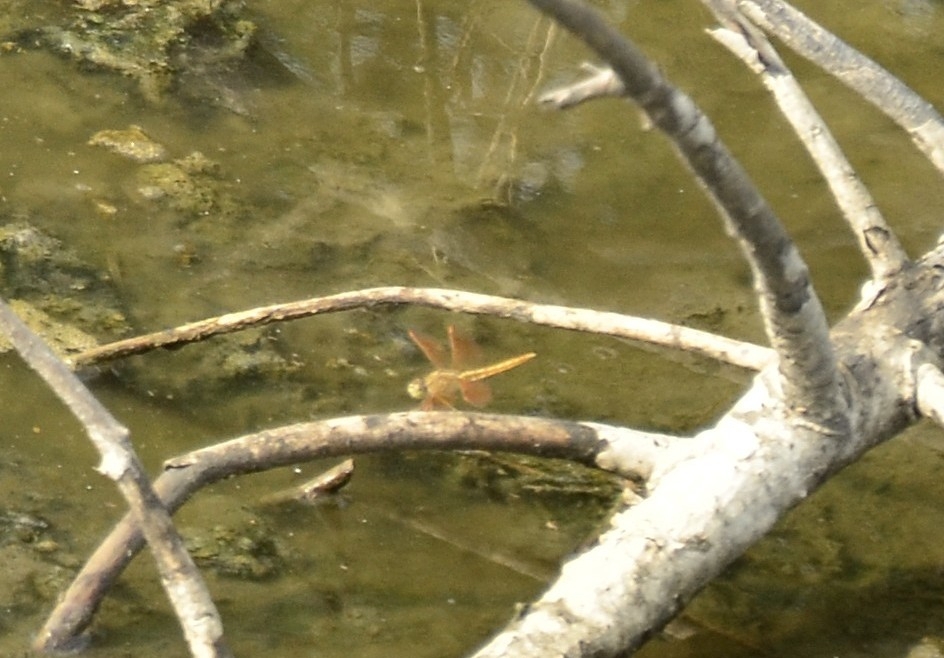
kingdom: Animalia
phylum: Arthropoda
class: Insecta
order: Odonata
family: Libellulidae
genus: Brachythemis
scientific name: Brachythemis contaminata
